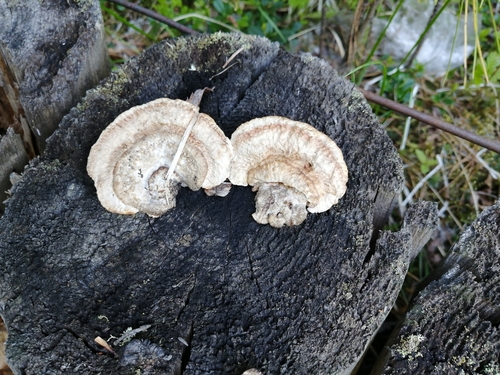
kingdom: Fungi
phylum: Basidiomycota
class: Agaricomycetes
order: Gloeophyllales
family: Gloeophyllaceae
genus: Gloeophyllum
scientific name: Gloeophyllum
